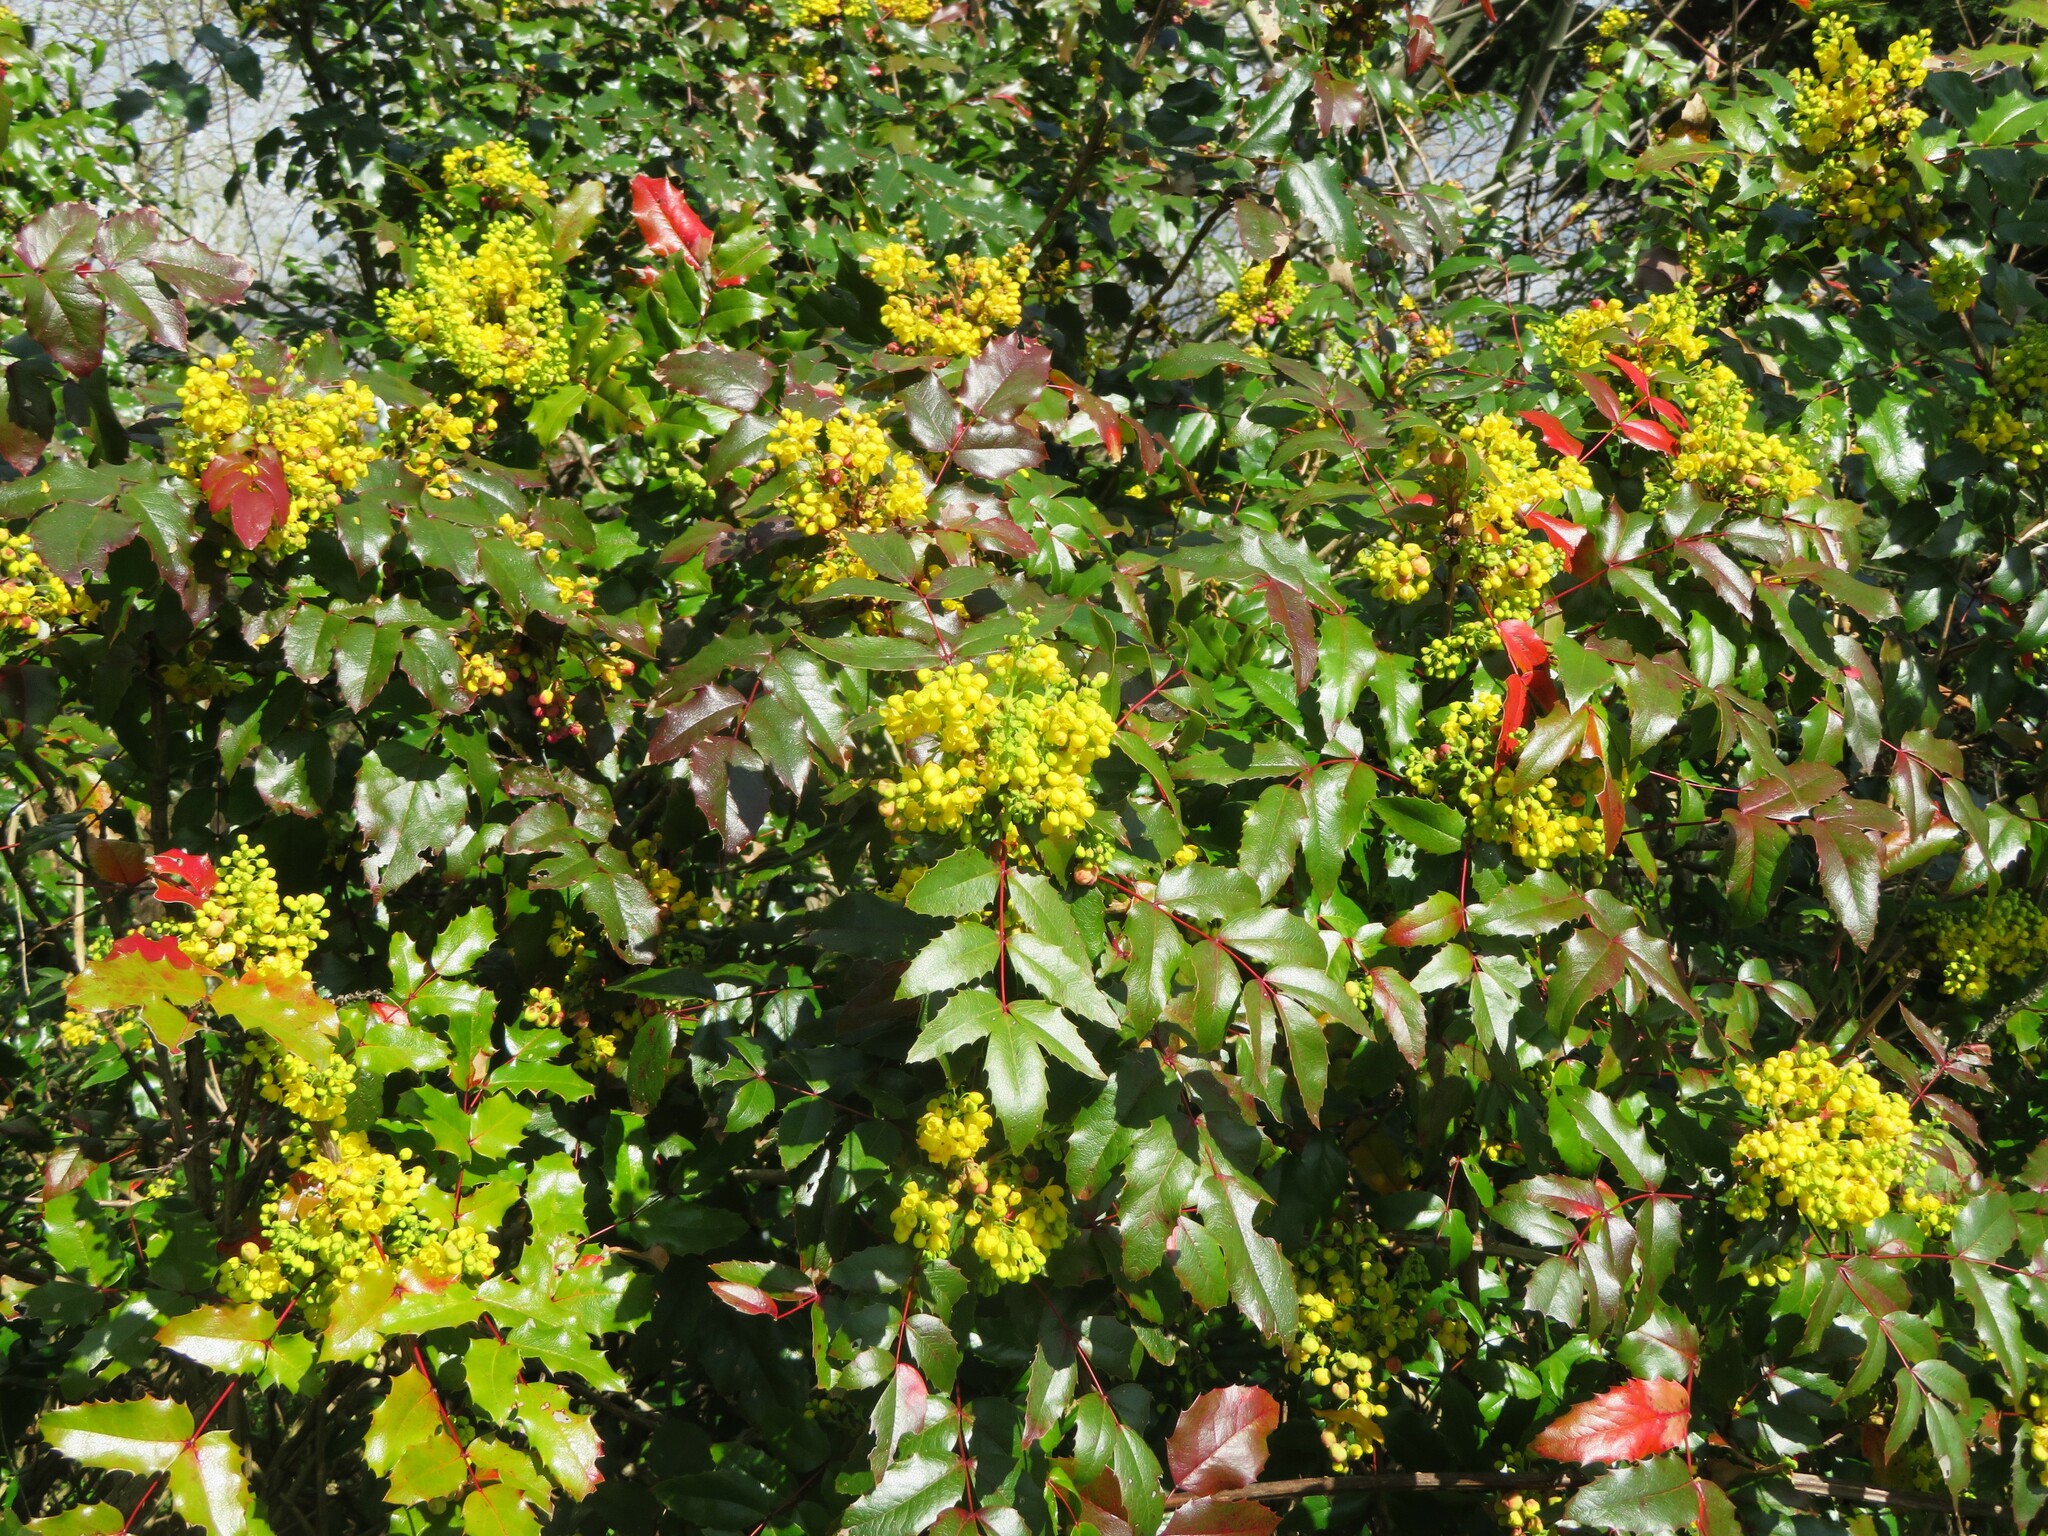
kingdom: Plantae
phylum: Tracheophyta
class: Magnoliopsida
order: Ranunculales
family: Berberidaceae
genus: Mahonia
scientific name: Mahonia aquifolium
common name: Oregon-grape
